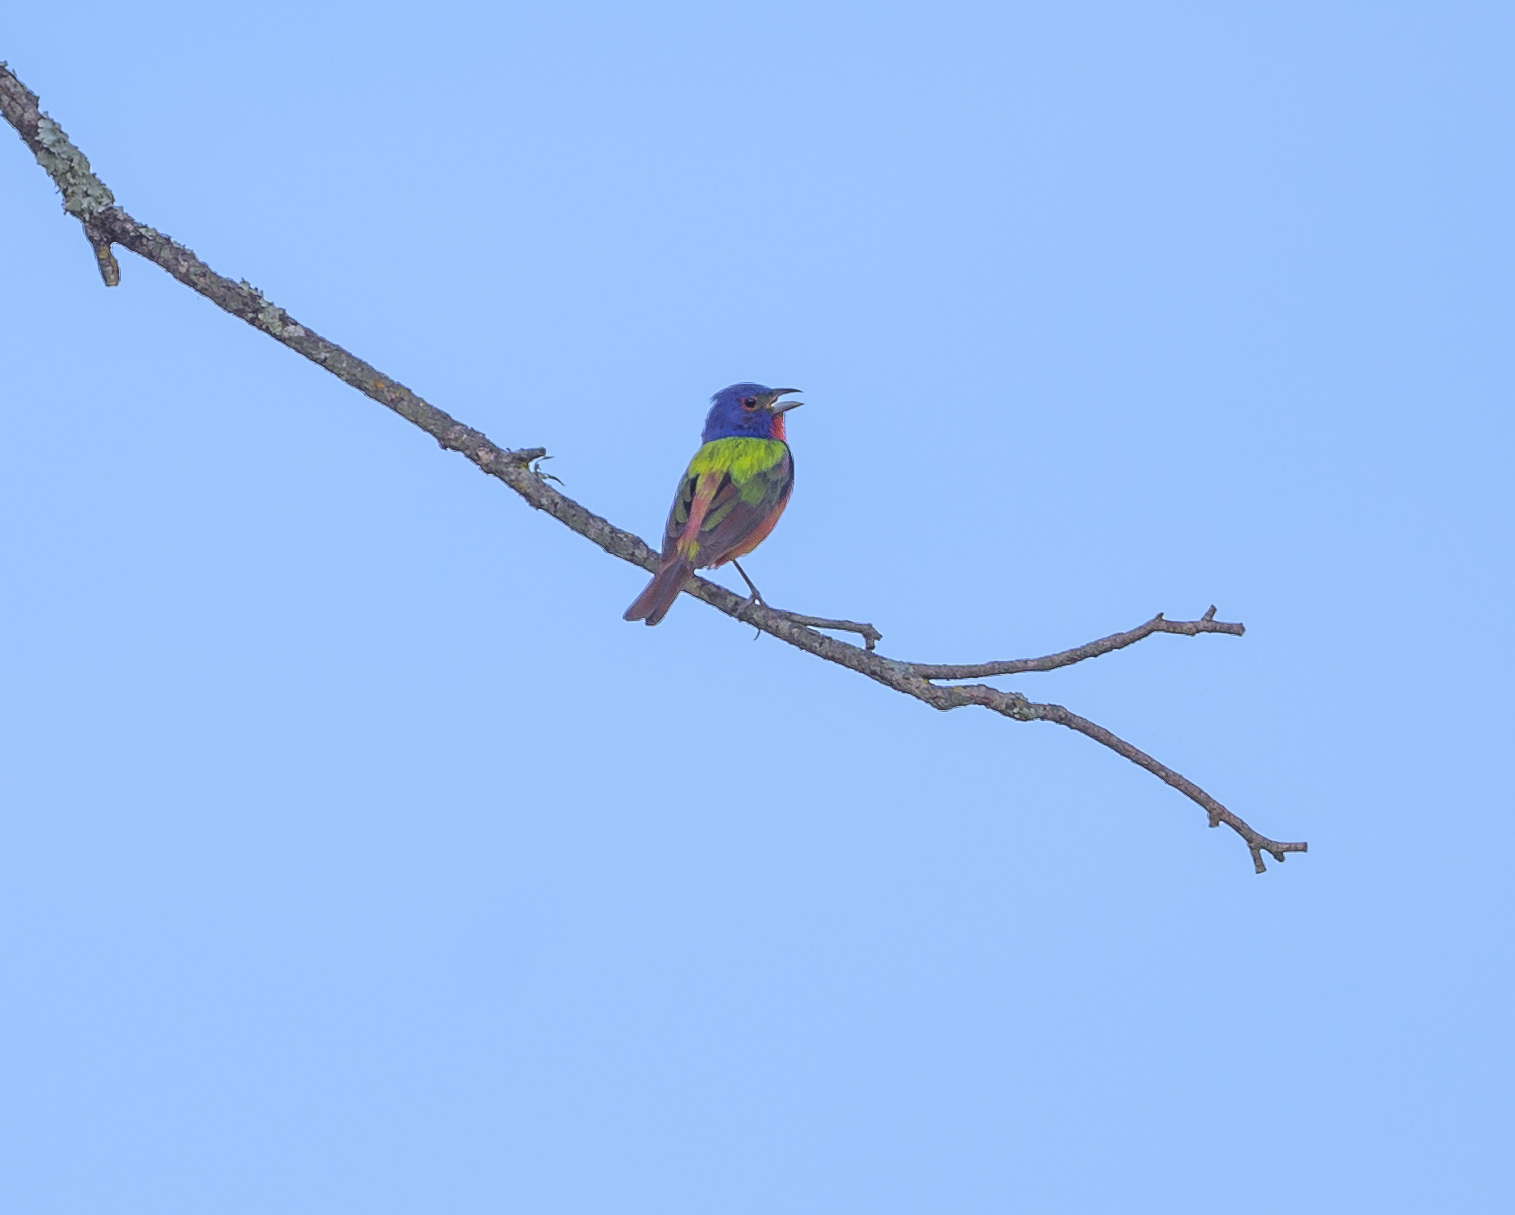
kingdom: Animalia
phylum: Chordata
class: Aves
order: Passeriformes
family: Cardinalidae
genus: Passerina
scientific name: Passerina ciris
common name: Painted bunting
